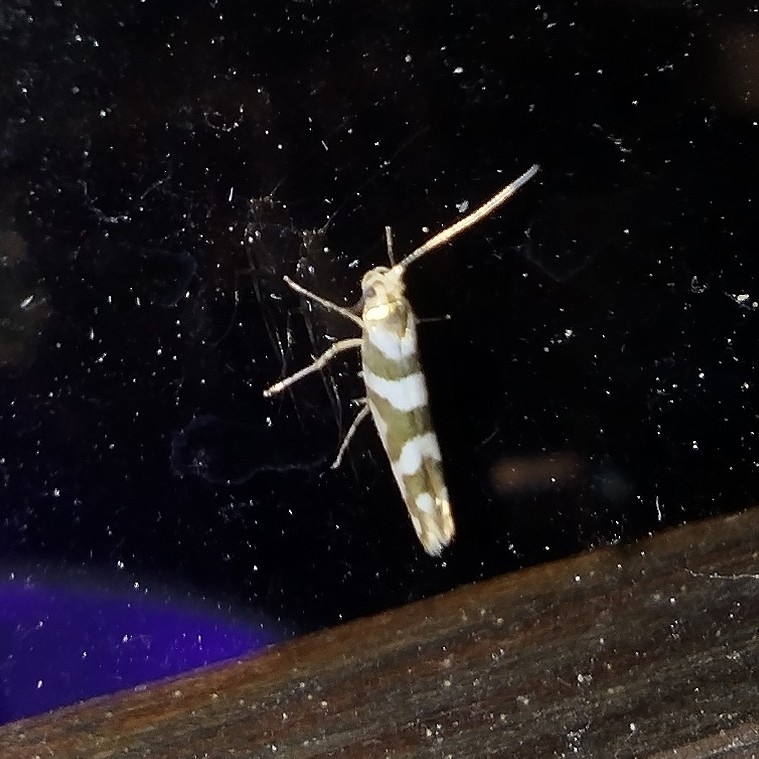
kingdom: Animalia
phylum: Arthropoda
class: Insecta
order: Lepidoptera
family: Argyresthiidae
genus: Argyresthia
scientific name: Argyresthia goedartella
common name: Golden argent
